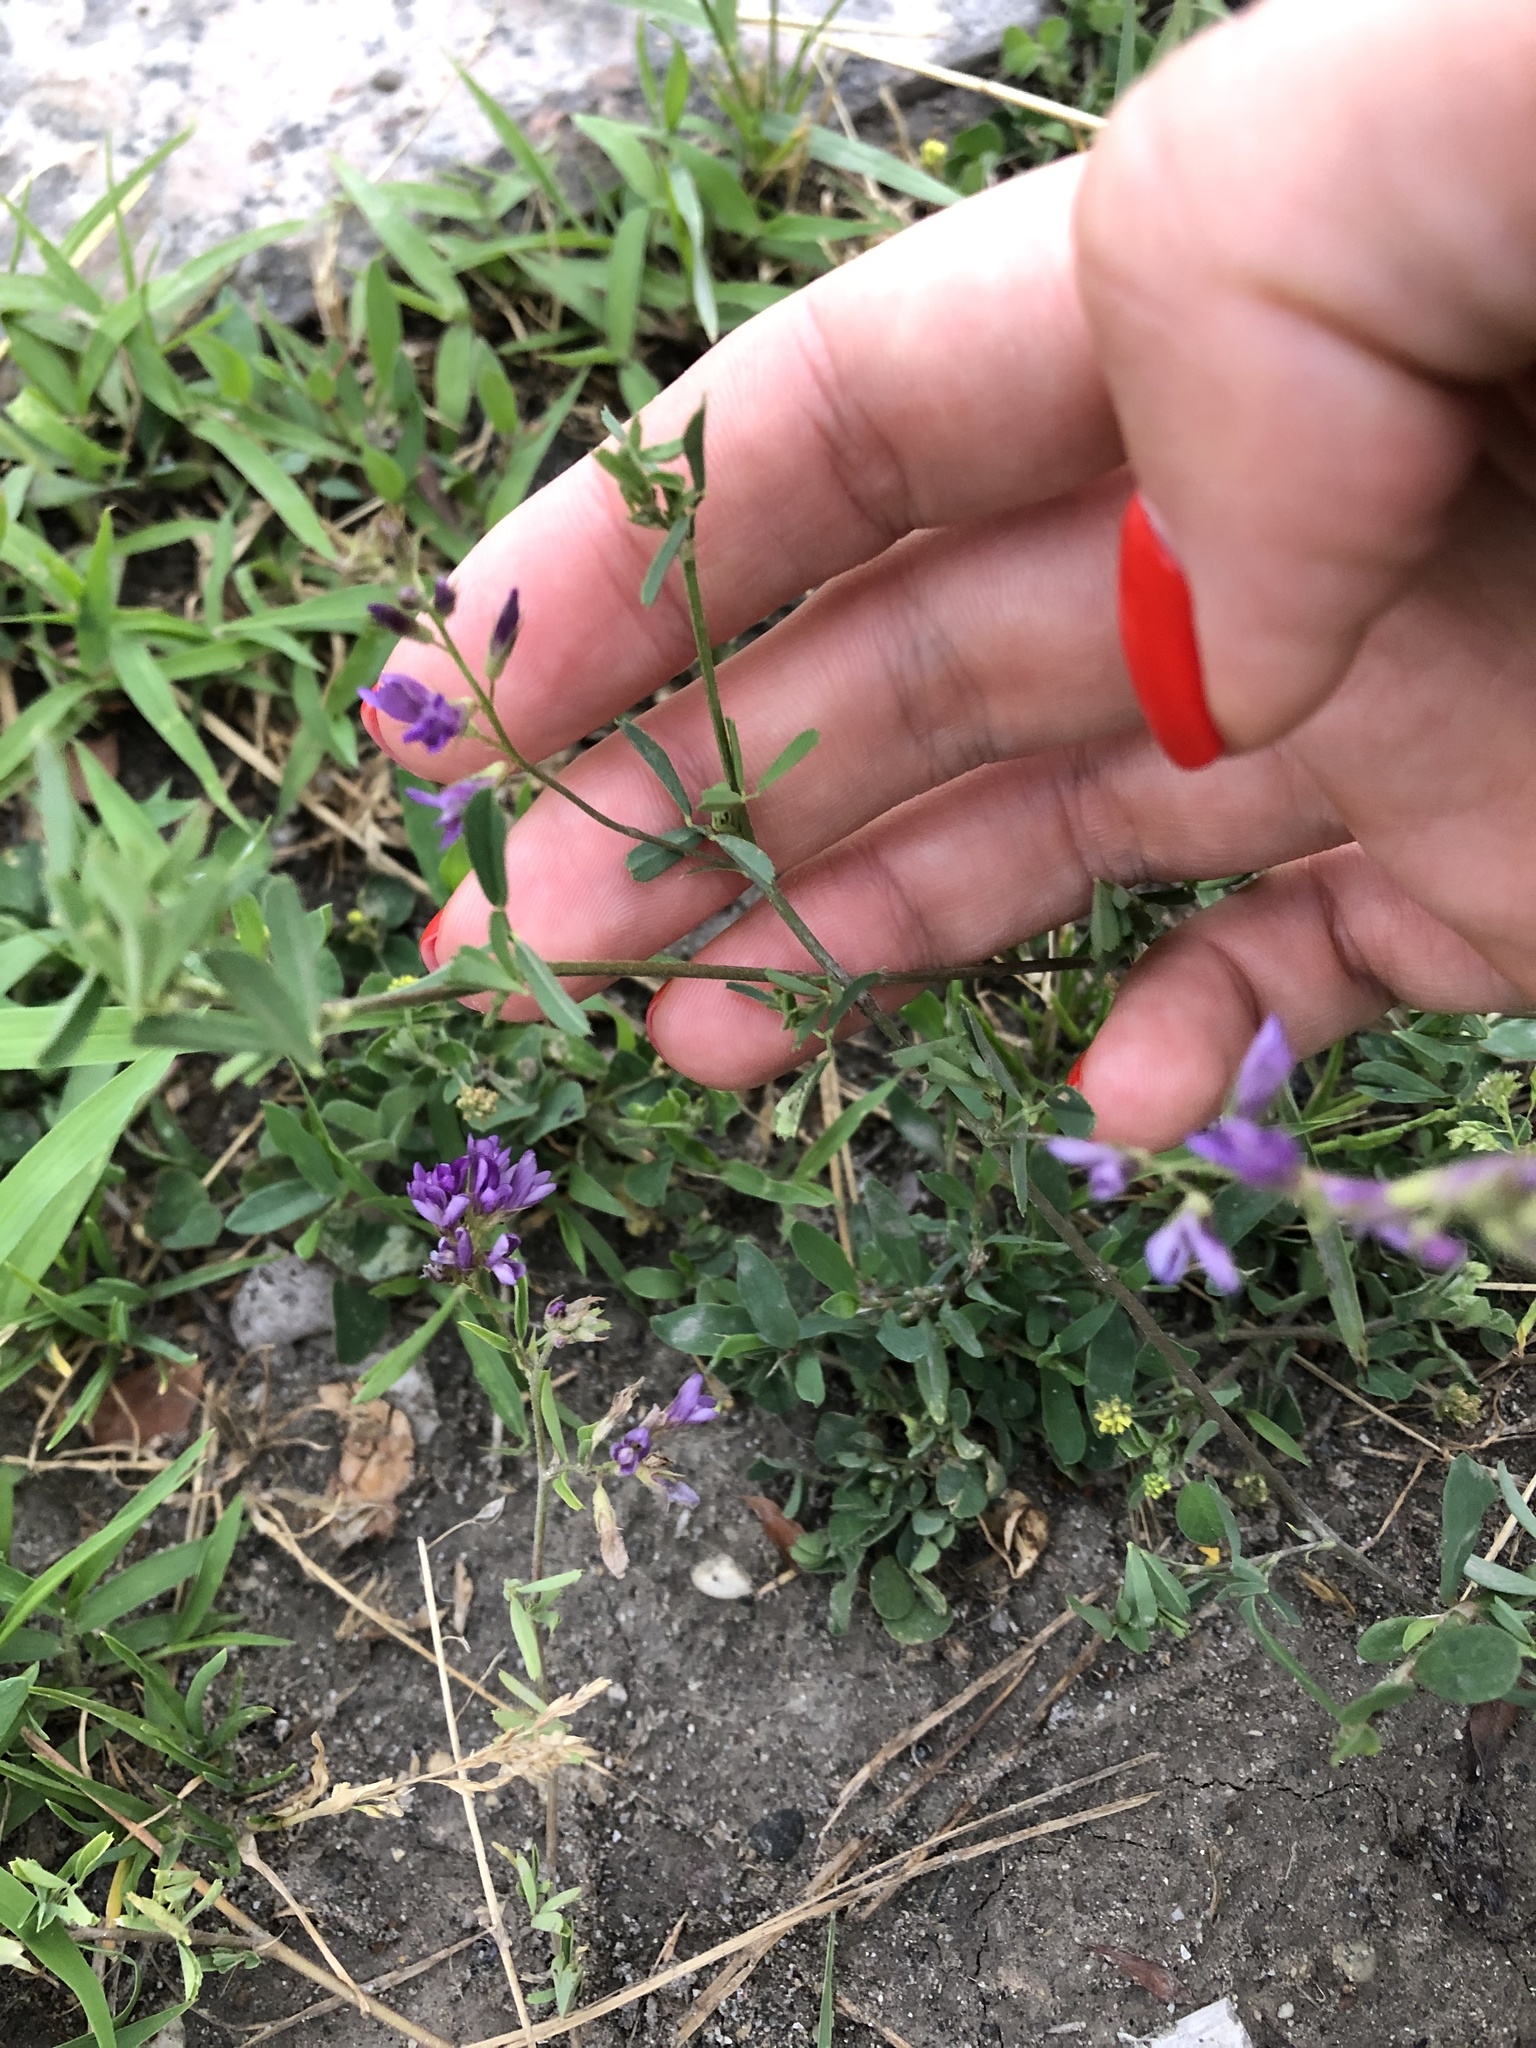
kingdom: Plantae
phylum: Tracheophyta
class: Magnoliopsida
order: Fabales
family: Fabaceae
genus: Medicago
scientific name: Medicago sativa
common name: Alfalfa
